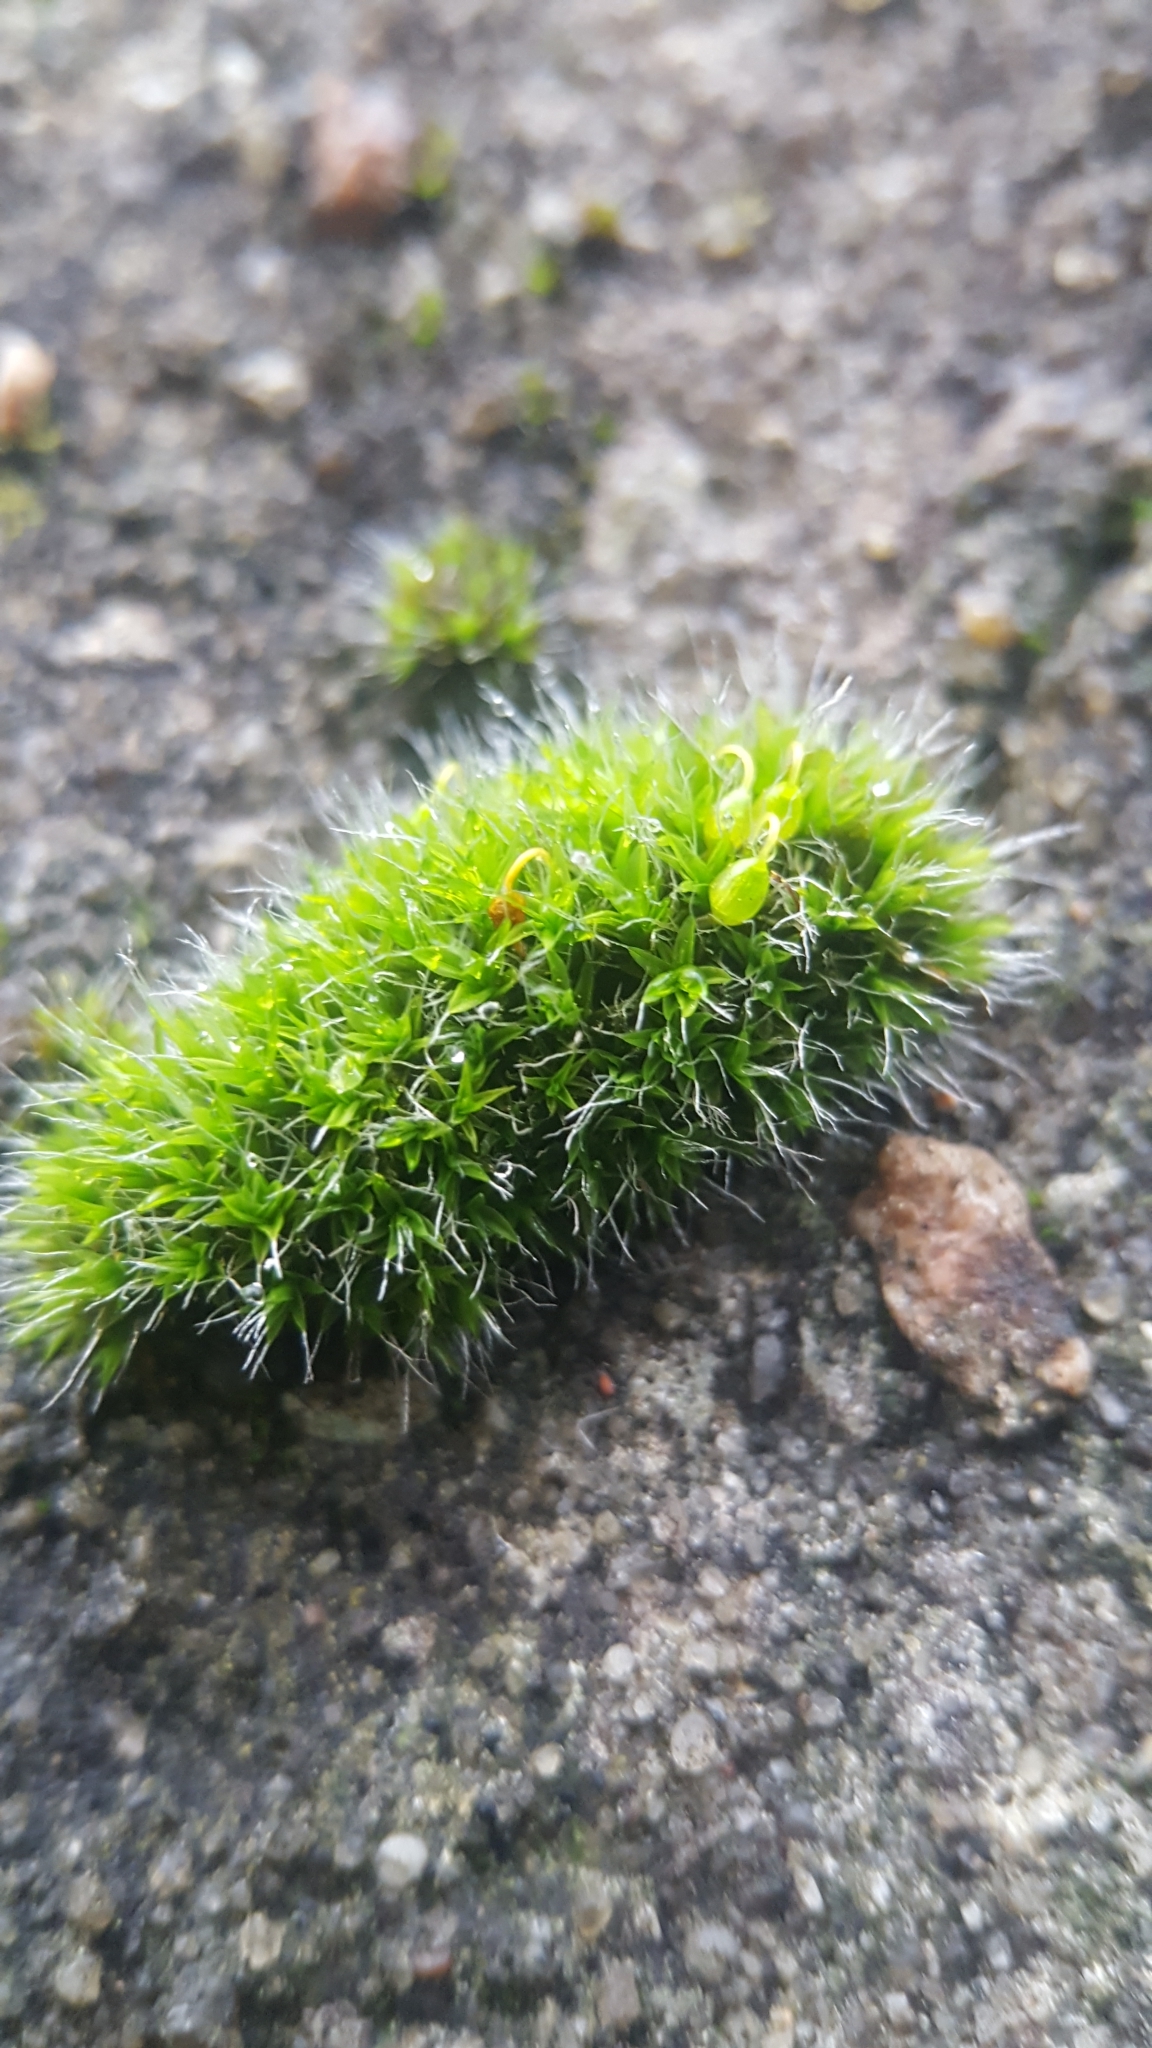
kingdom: Plantae
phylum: Bryophyta
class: Bryopsida
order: Grimmiales
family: Grimmiaceae
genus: Grimmia
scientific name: Grimmia pulvinata
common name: Grey-cushioned grimmia
